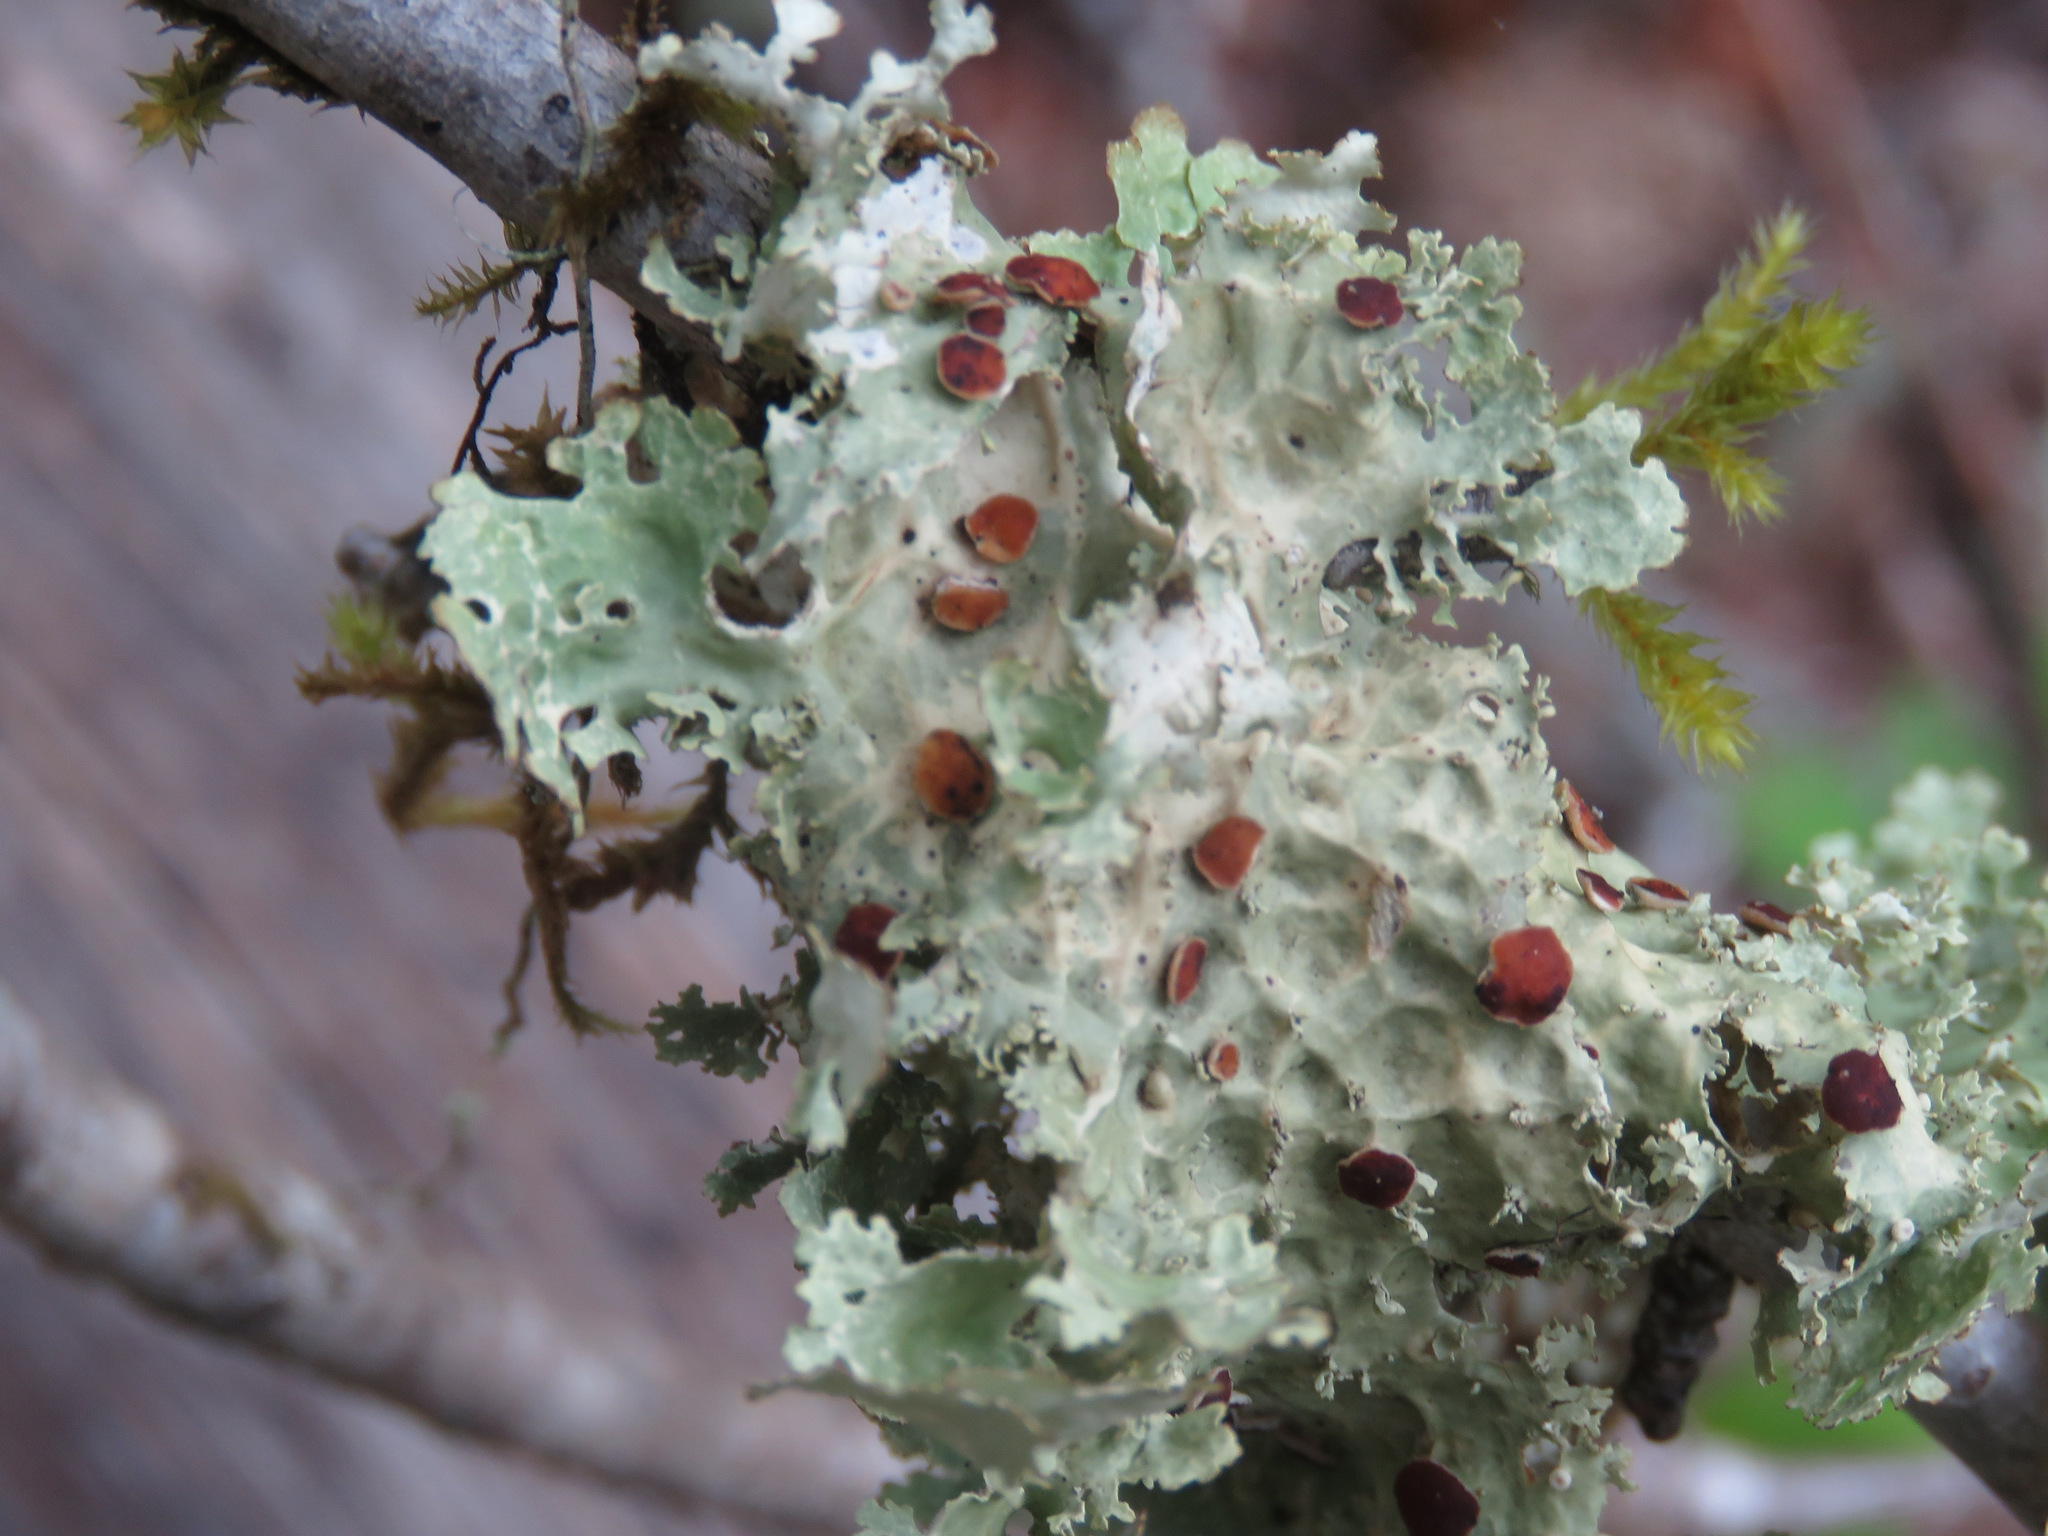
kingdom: Fungi
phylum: Ascomycota
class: Lecanoromycetes
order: Peltigerales
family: Lobariaceae
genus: Lobaria
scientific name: Lobaria oregana
